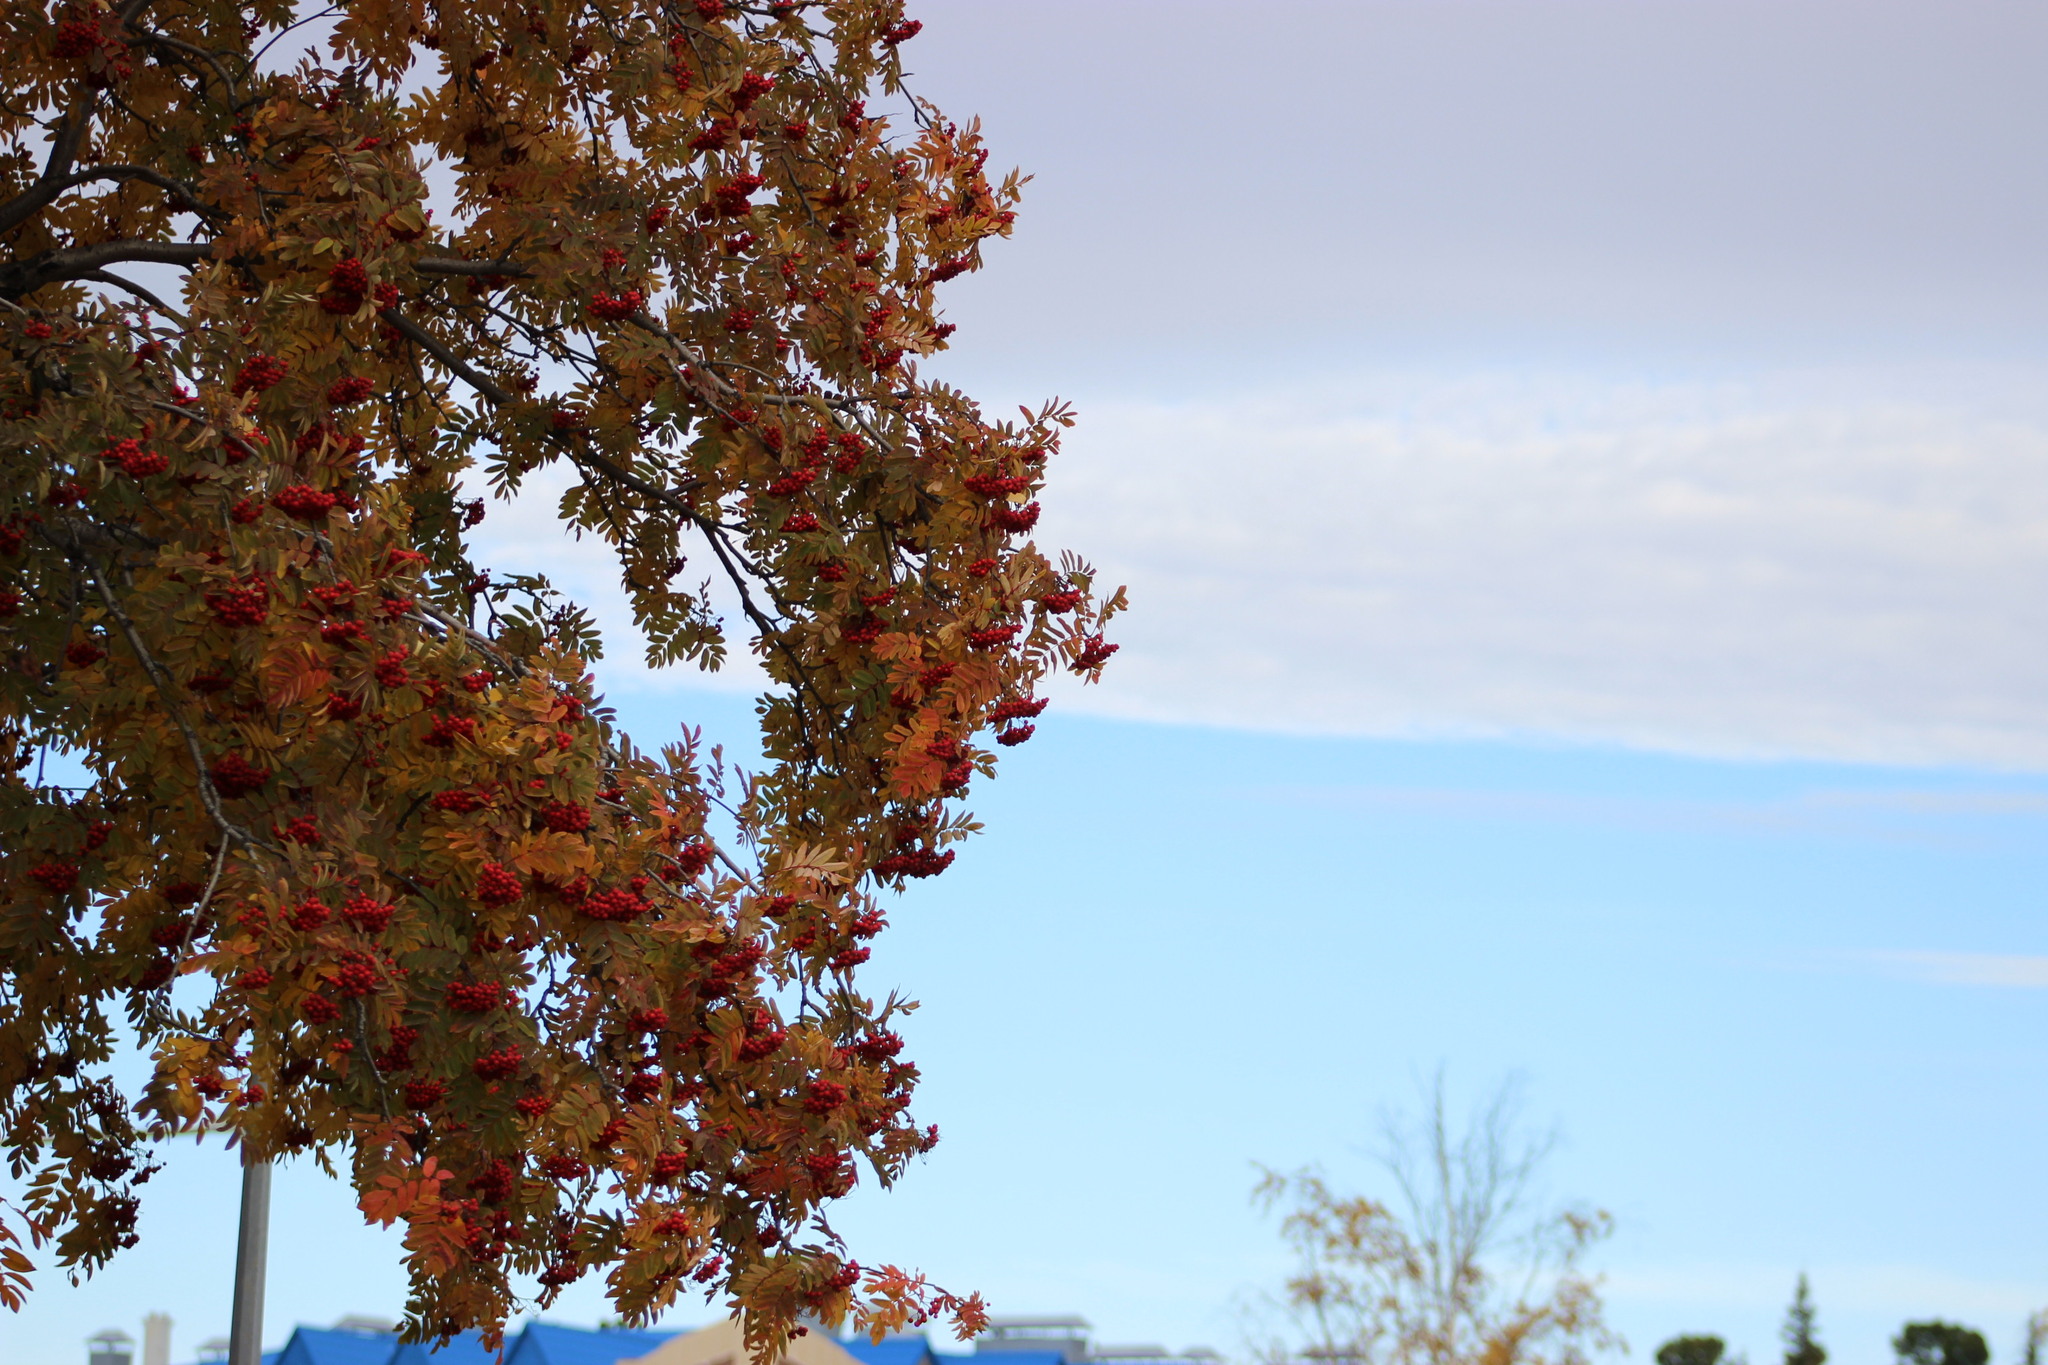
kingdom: Plantae
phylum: Tracheophyta
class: Magnoliopsida
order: Rosales
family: Rosaceae
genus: Sorbus
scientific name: Sorbus aucuparia
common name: Rowan
